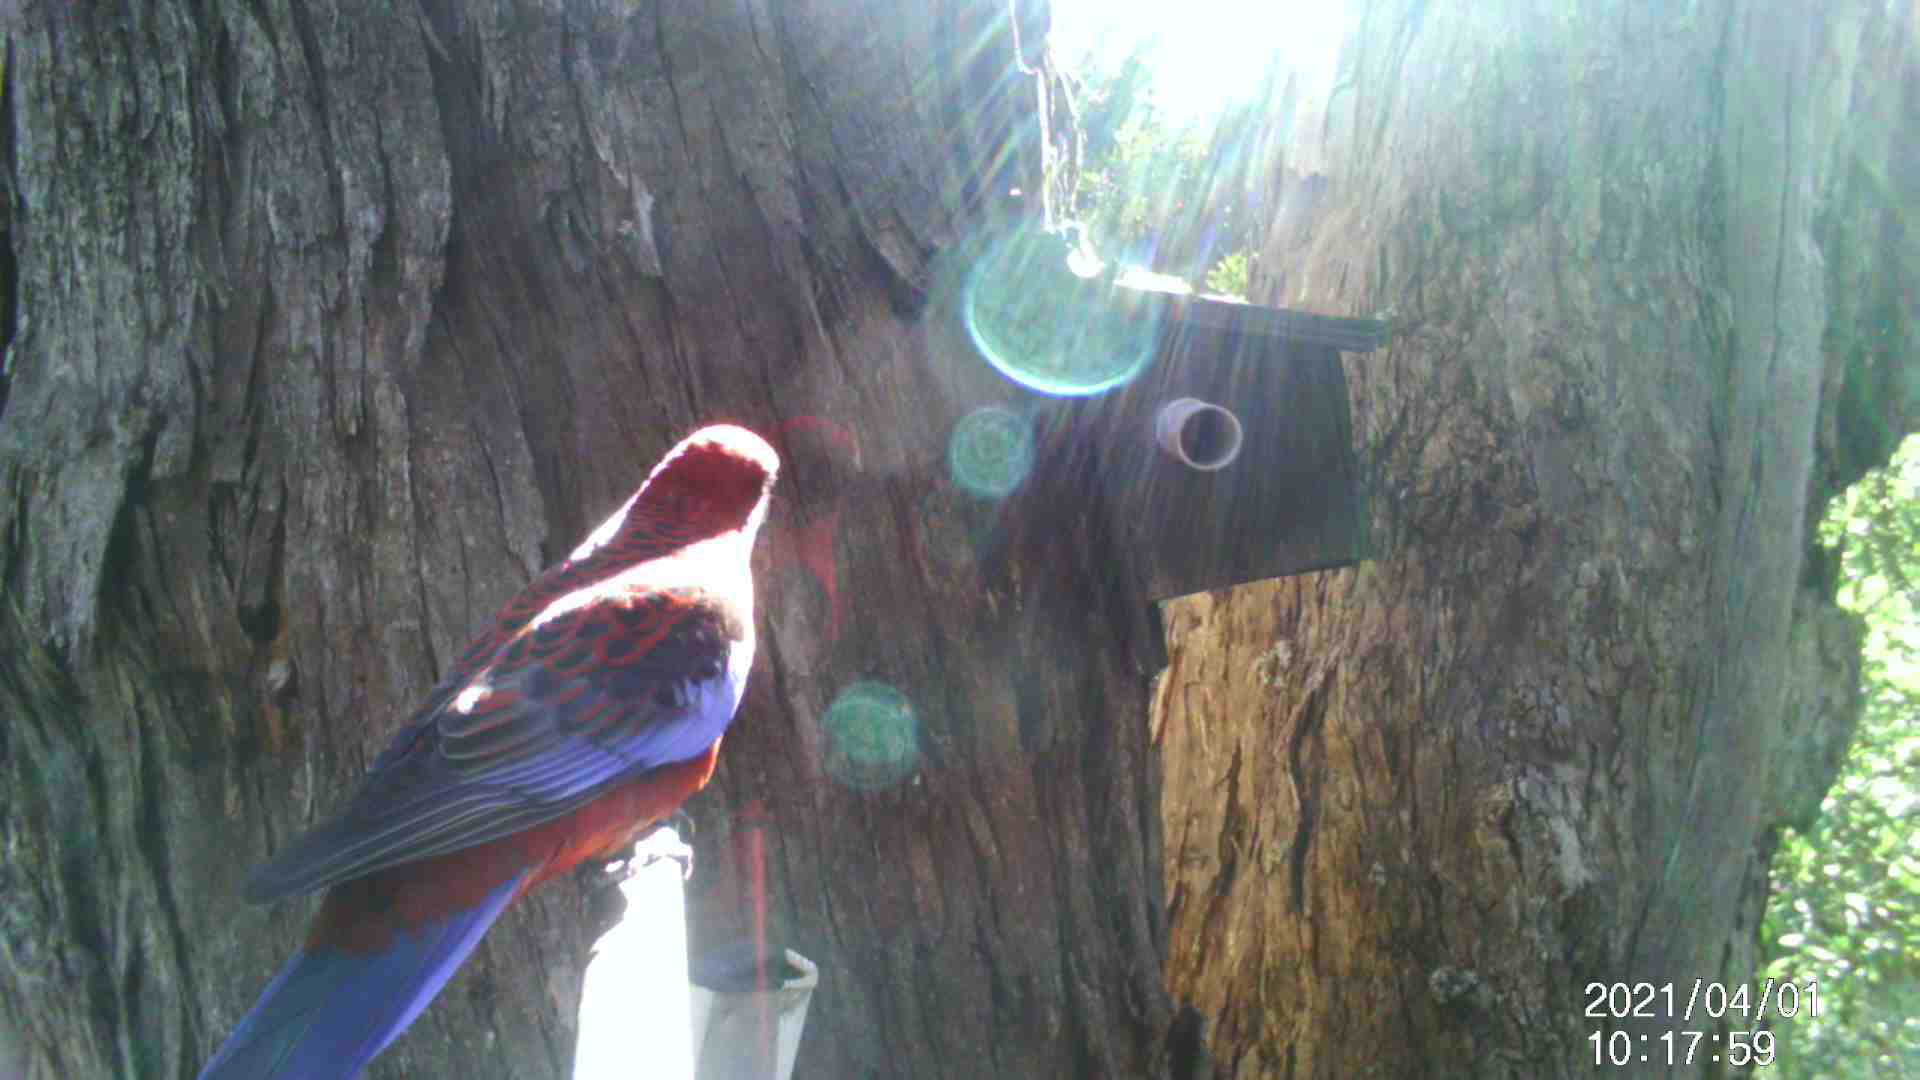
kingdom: Animalia
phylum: Chordata
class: Aves
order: Psittaciformes
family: Psittacidae
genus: Platycercus
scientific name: Platycercus elegans
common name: Crimson rosella
